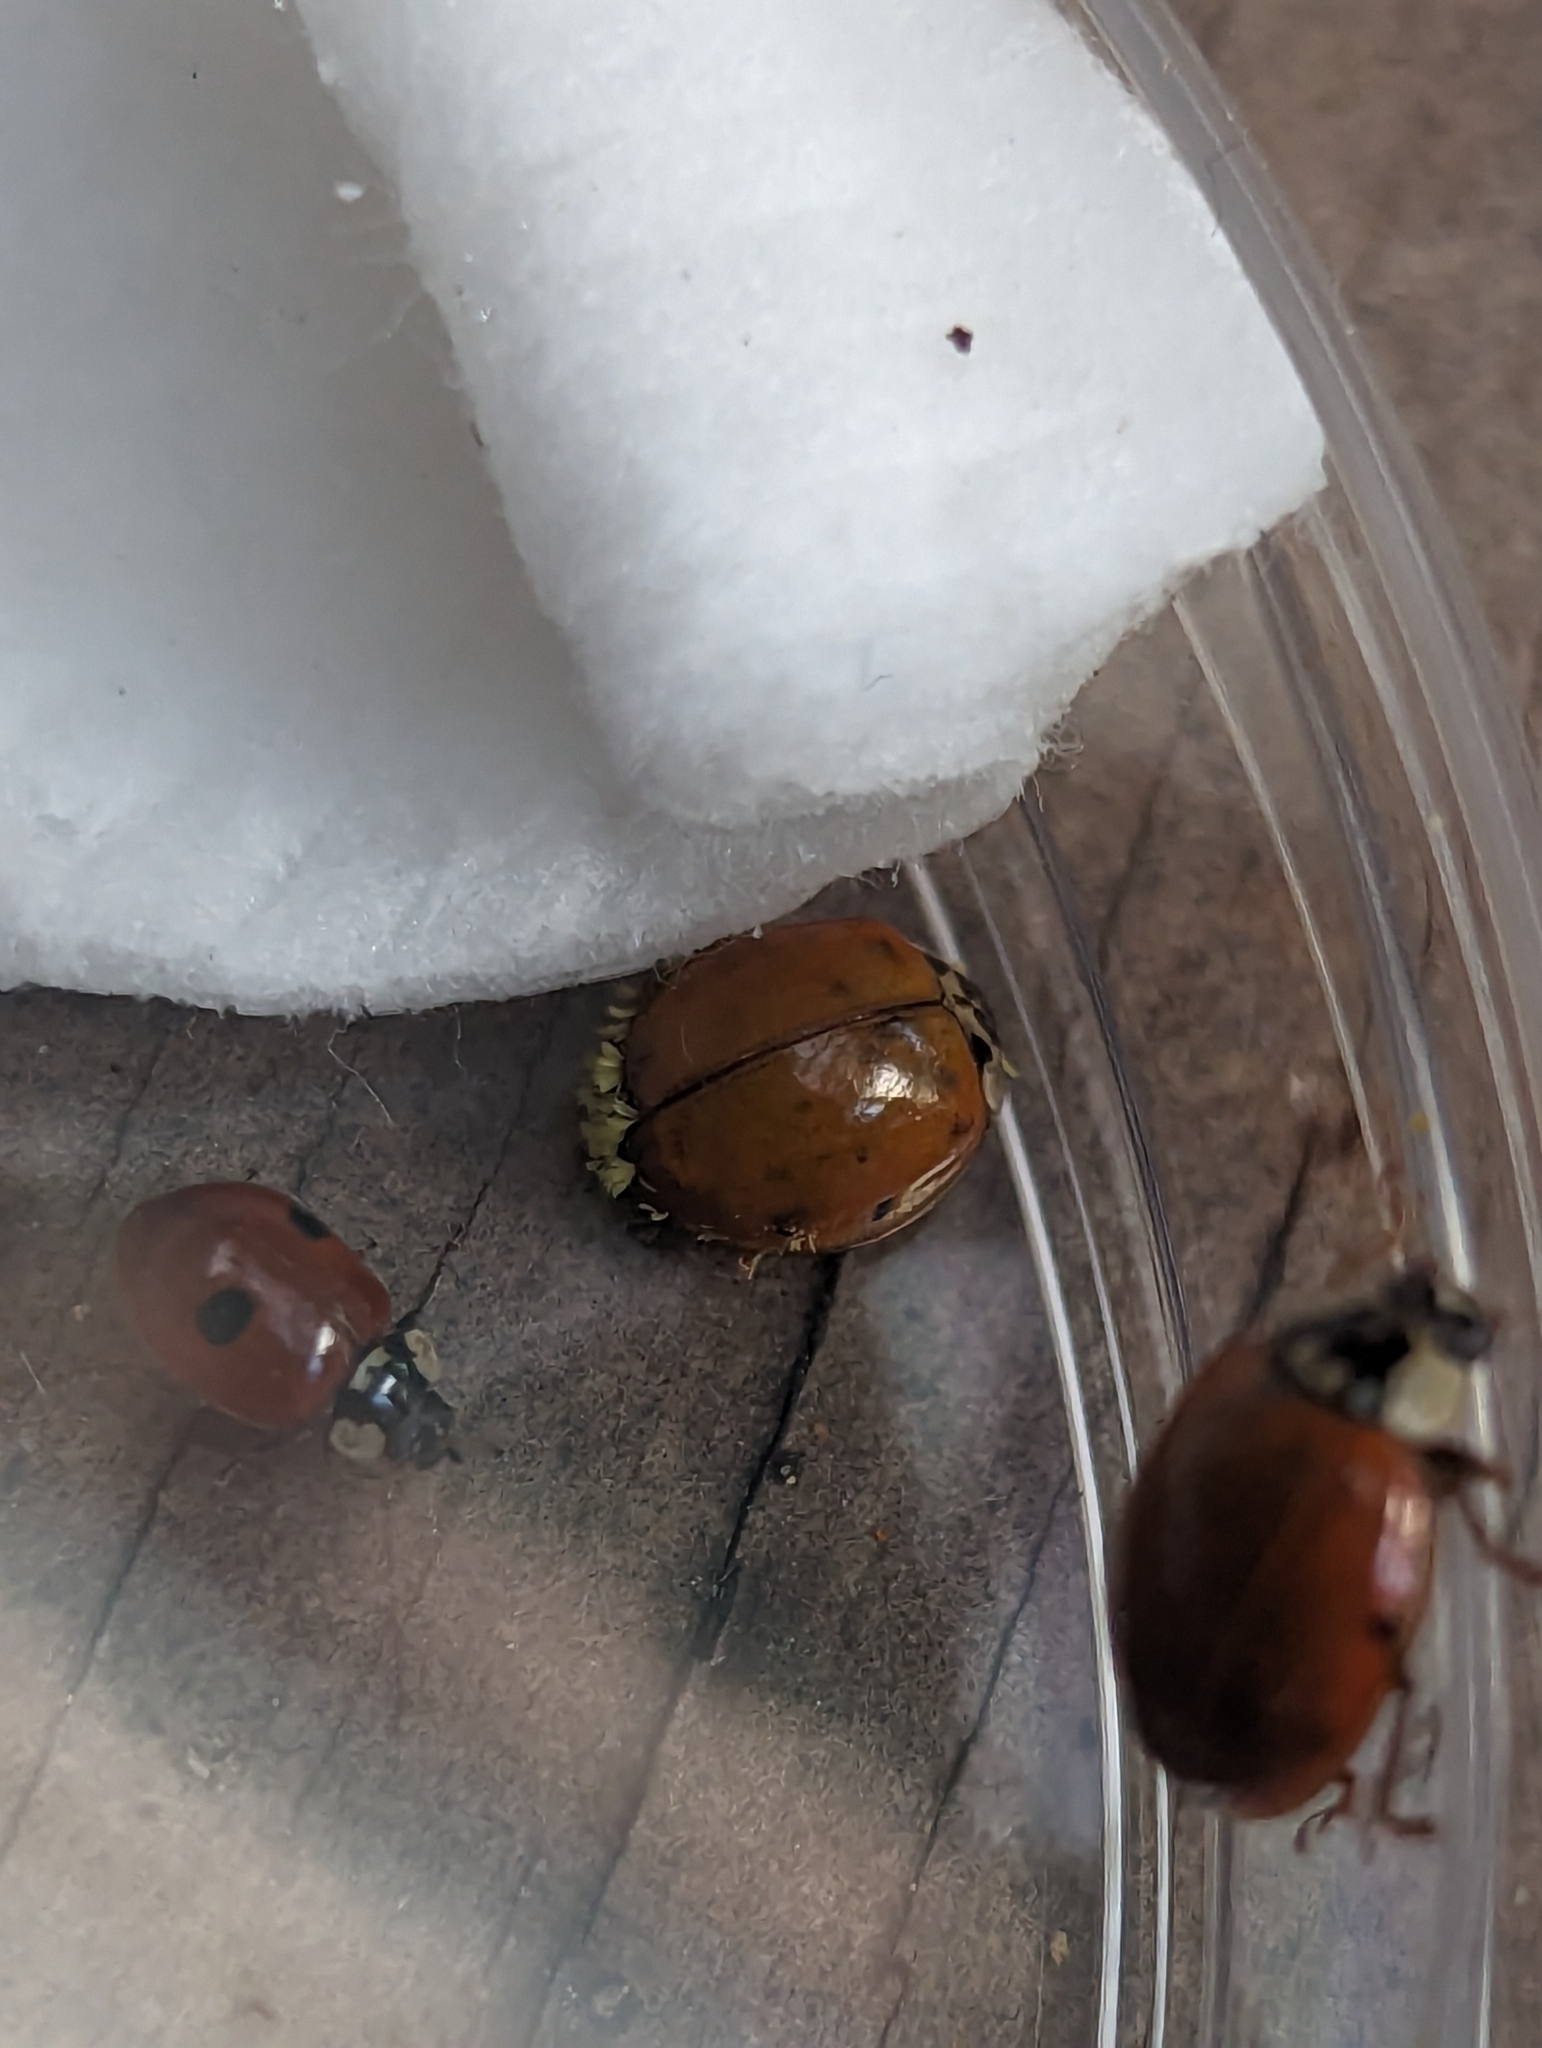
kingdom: Fungi
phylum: Ascomycota
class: Laboulbeniomycetes
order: Laboulbeniales
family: Laboulbeniaceae
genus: Hesperomyces
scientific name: Hesperomyces harmoniae
